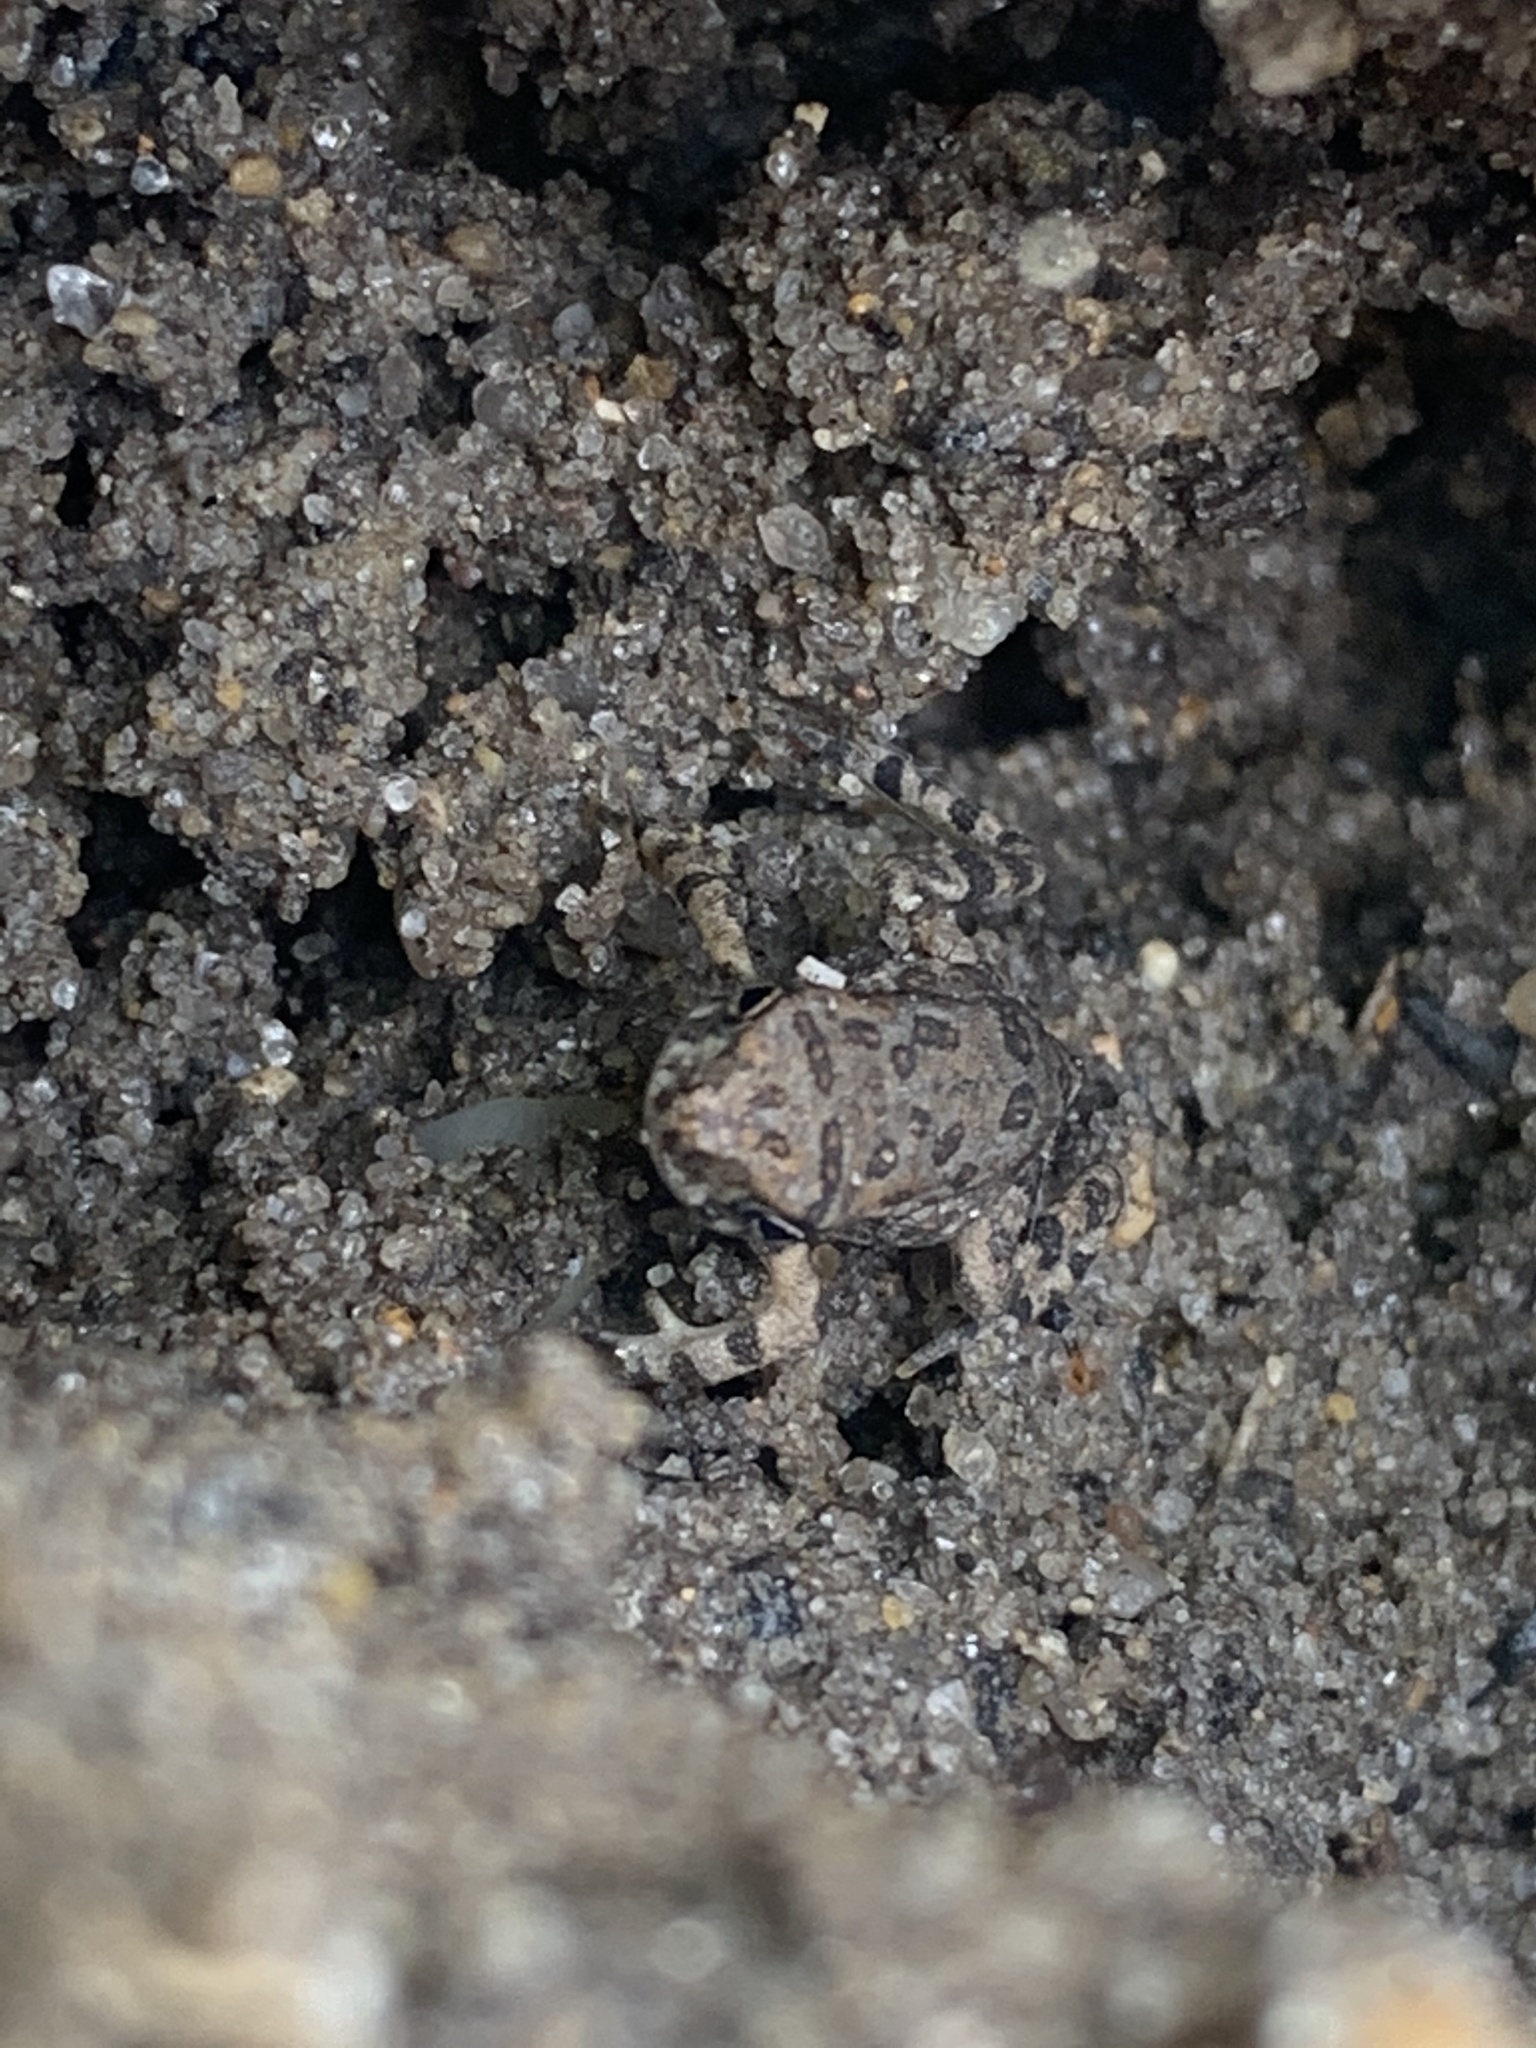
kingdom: Animalia
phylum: Chordata
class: Amphibia
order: Anura
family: Bufonidae
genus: Anaxyrus
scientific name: Anaxyrus fowleri
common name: Fowler's toad
